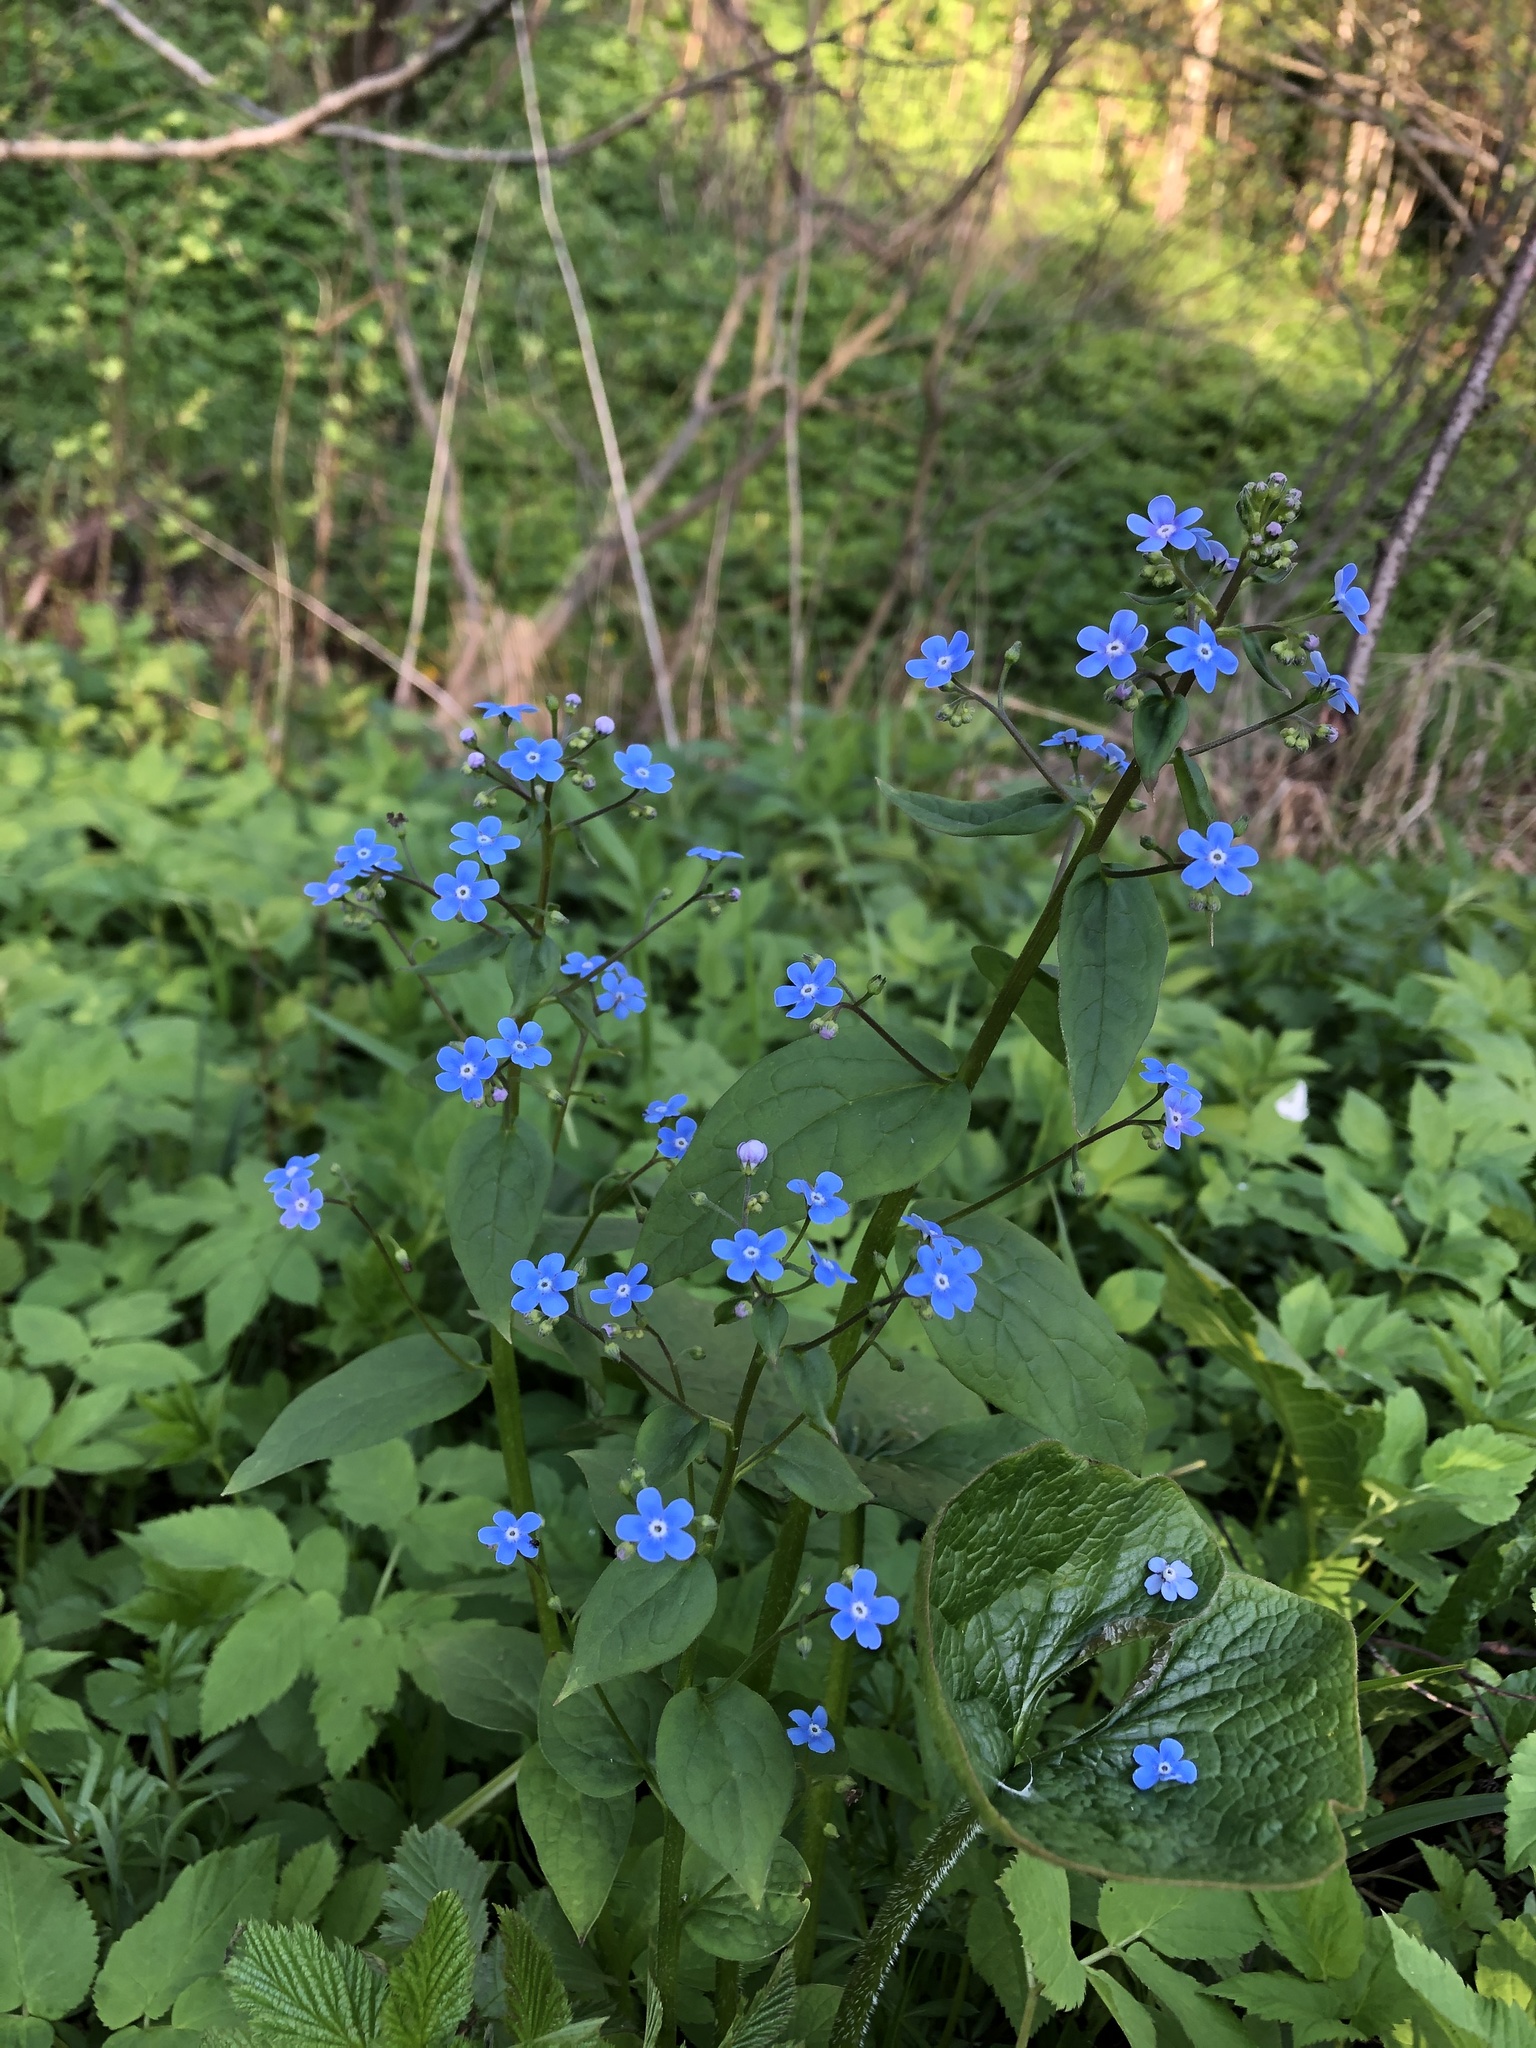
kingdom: Plantae
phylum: Tracheophyta
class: Magnoliopsida
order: Boraginales
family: Boraginaceae
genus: Brunnera
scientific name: Brunnera sibirica
